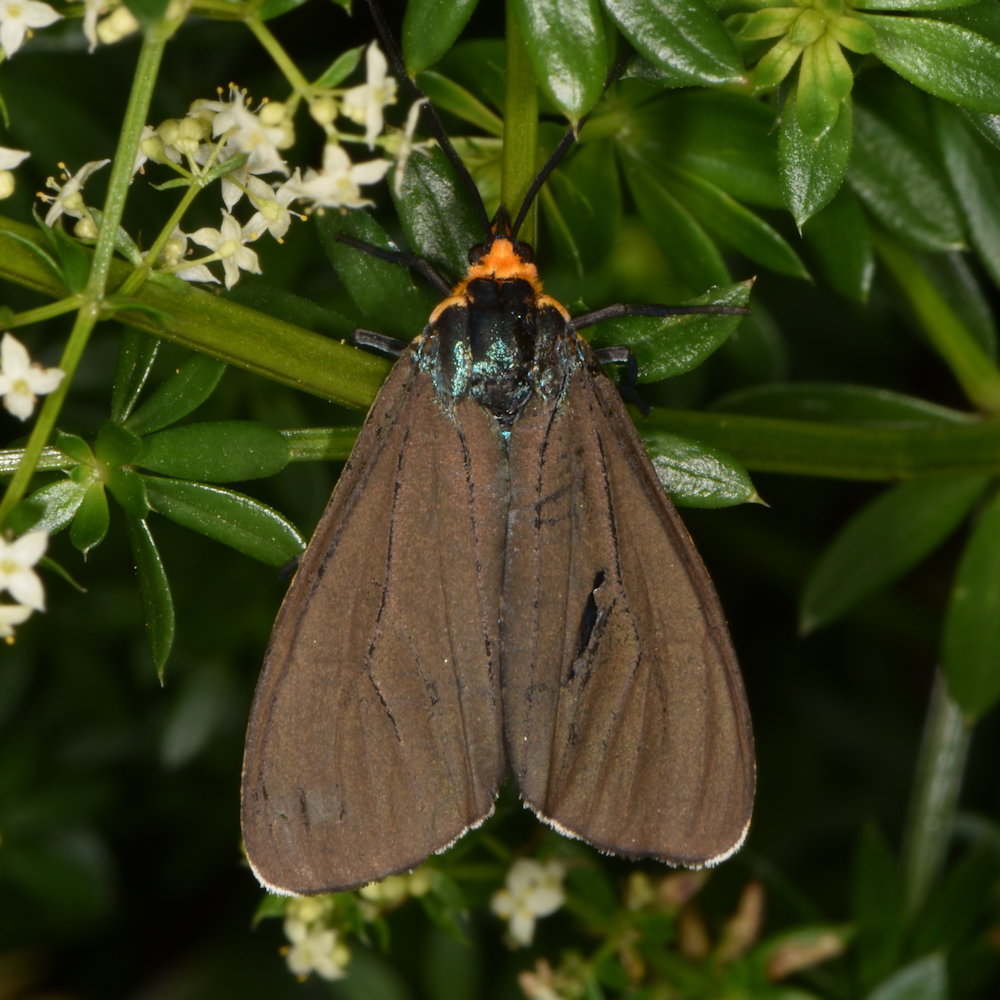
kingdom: Animalia
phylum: Arthropoda
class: Insecta
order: Lepidoptera
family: Erebidae
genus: Ctenucha
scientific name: Ctenucha virginica
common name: Virginia ctenucha moth
